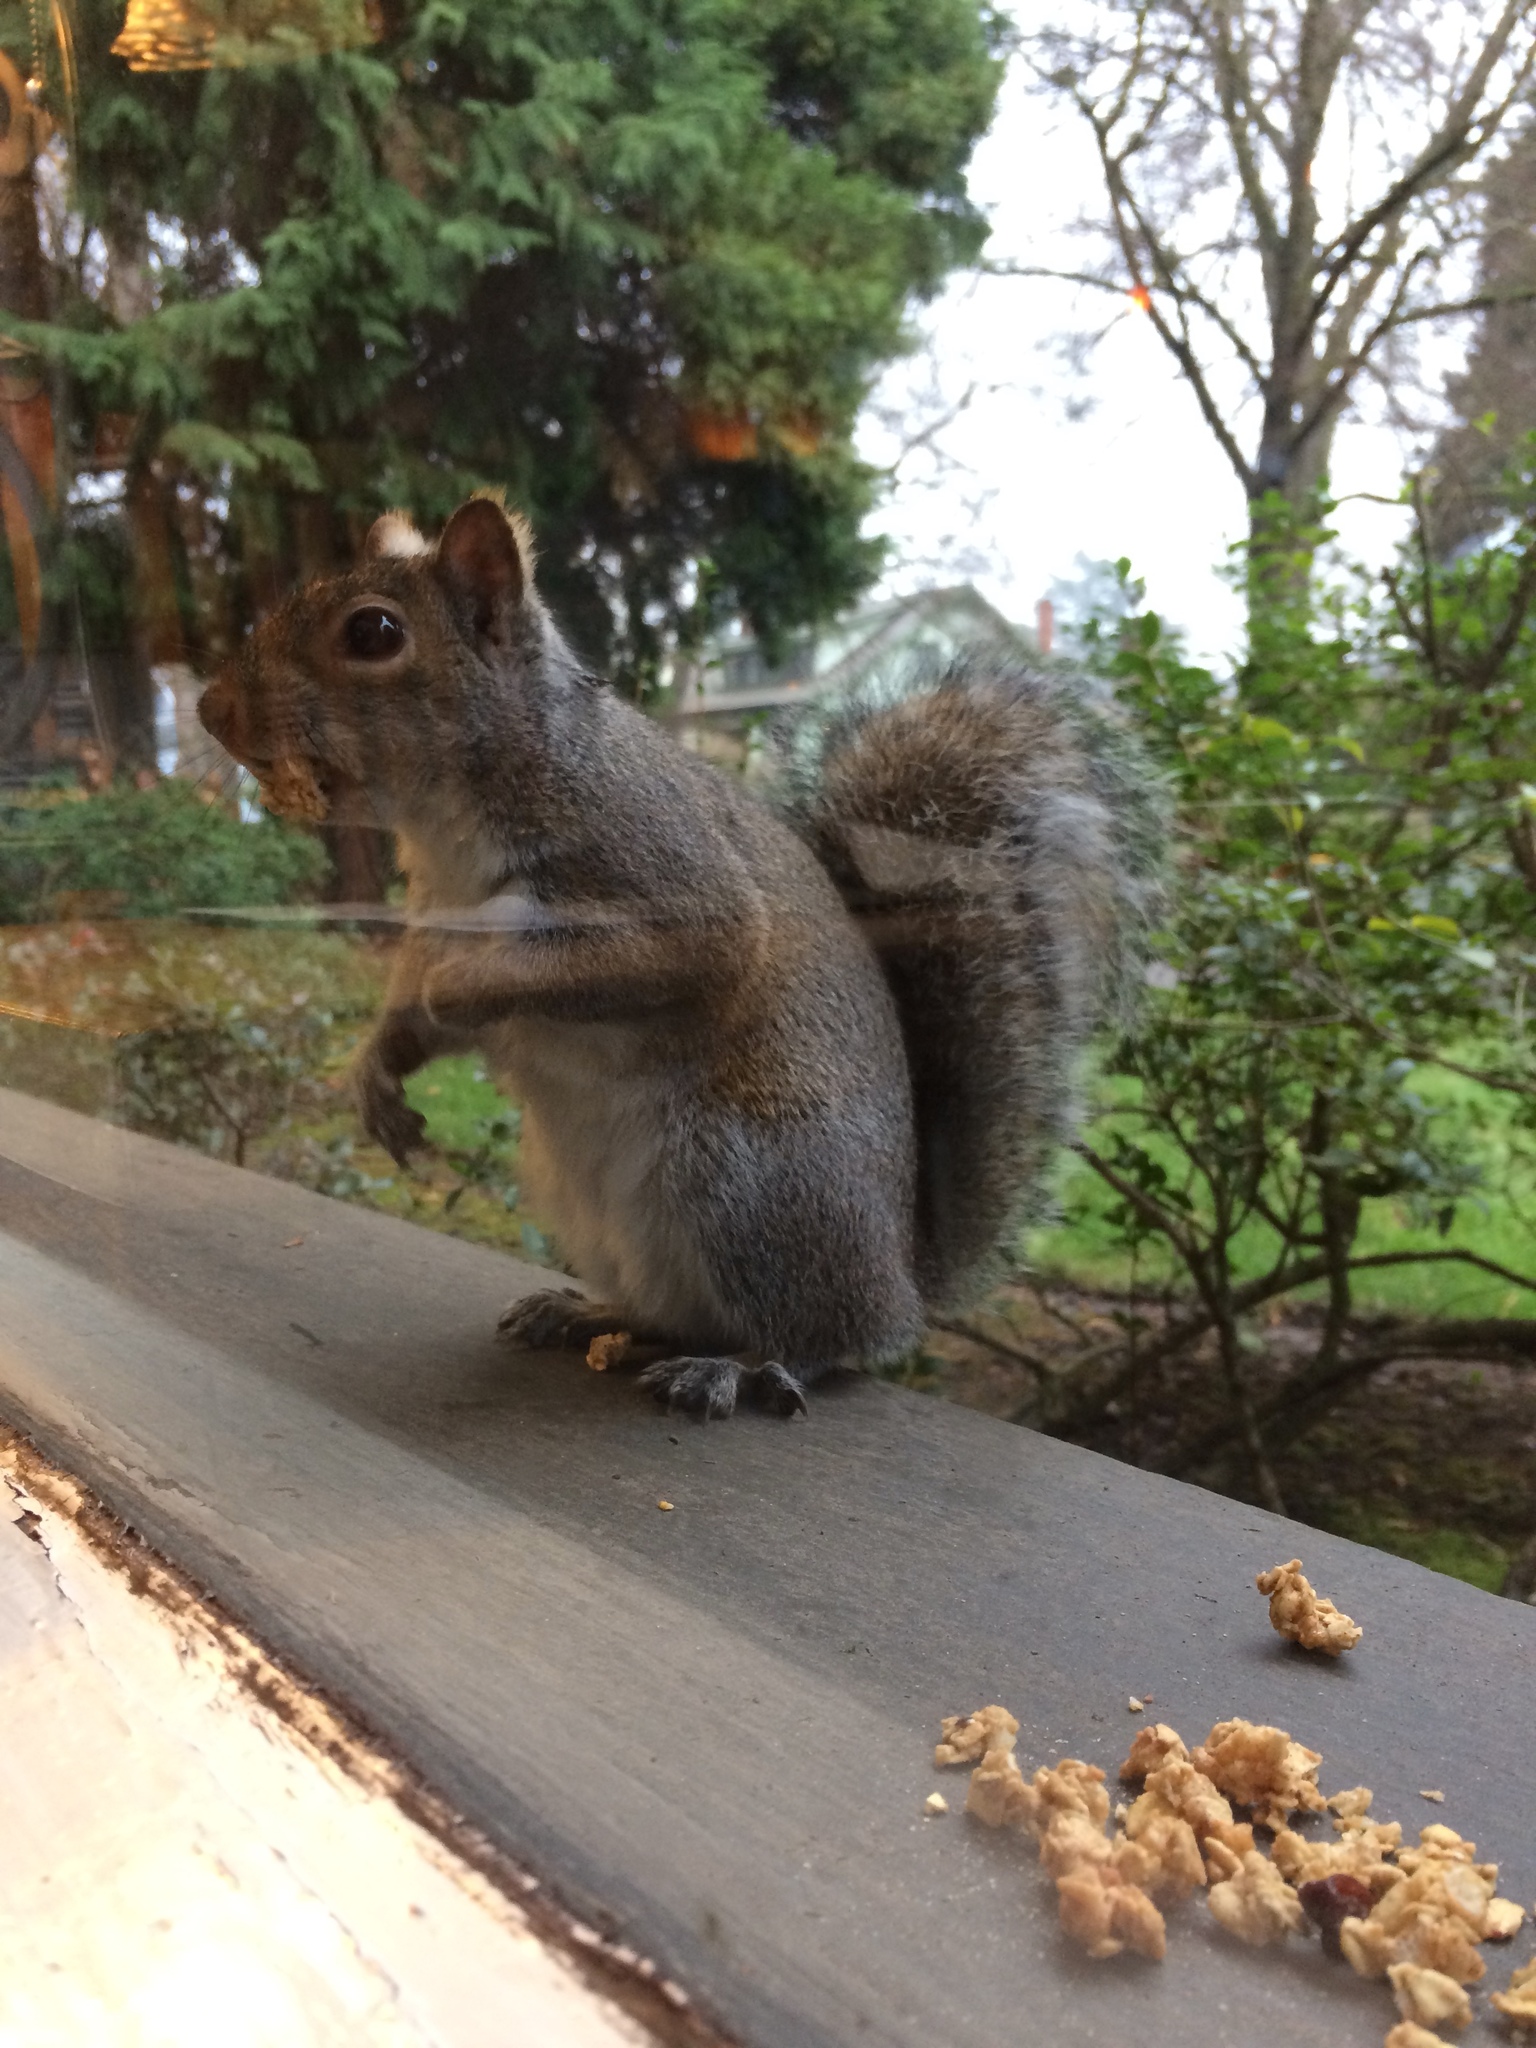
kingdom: Animalia
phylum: Chordata
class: Mammalia
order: Rodentia
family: Sciuridae
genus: Sciurus
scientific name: Sciurus carolinensis
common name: Eastern gray squirrel
